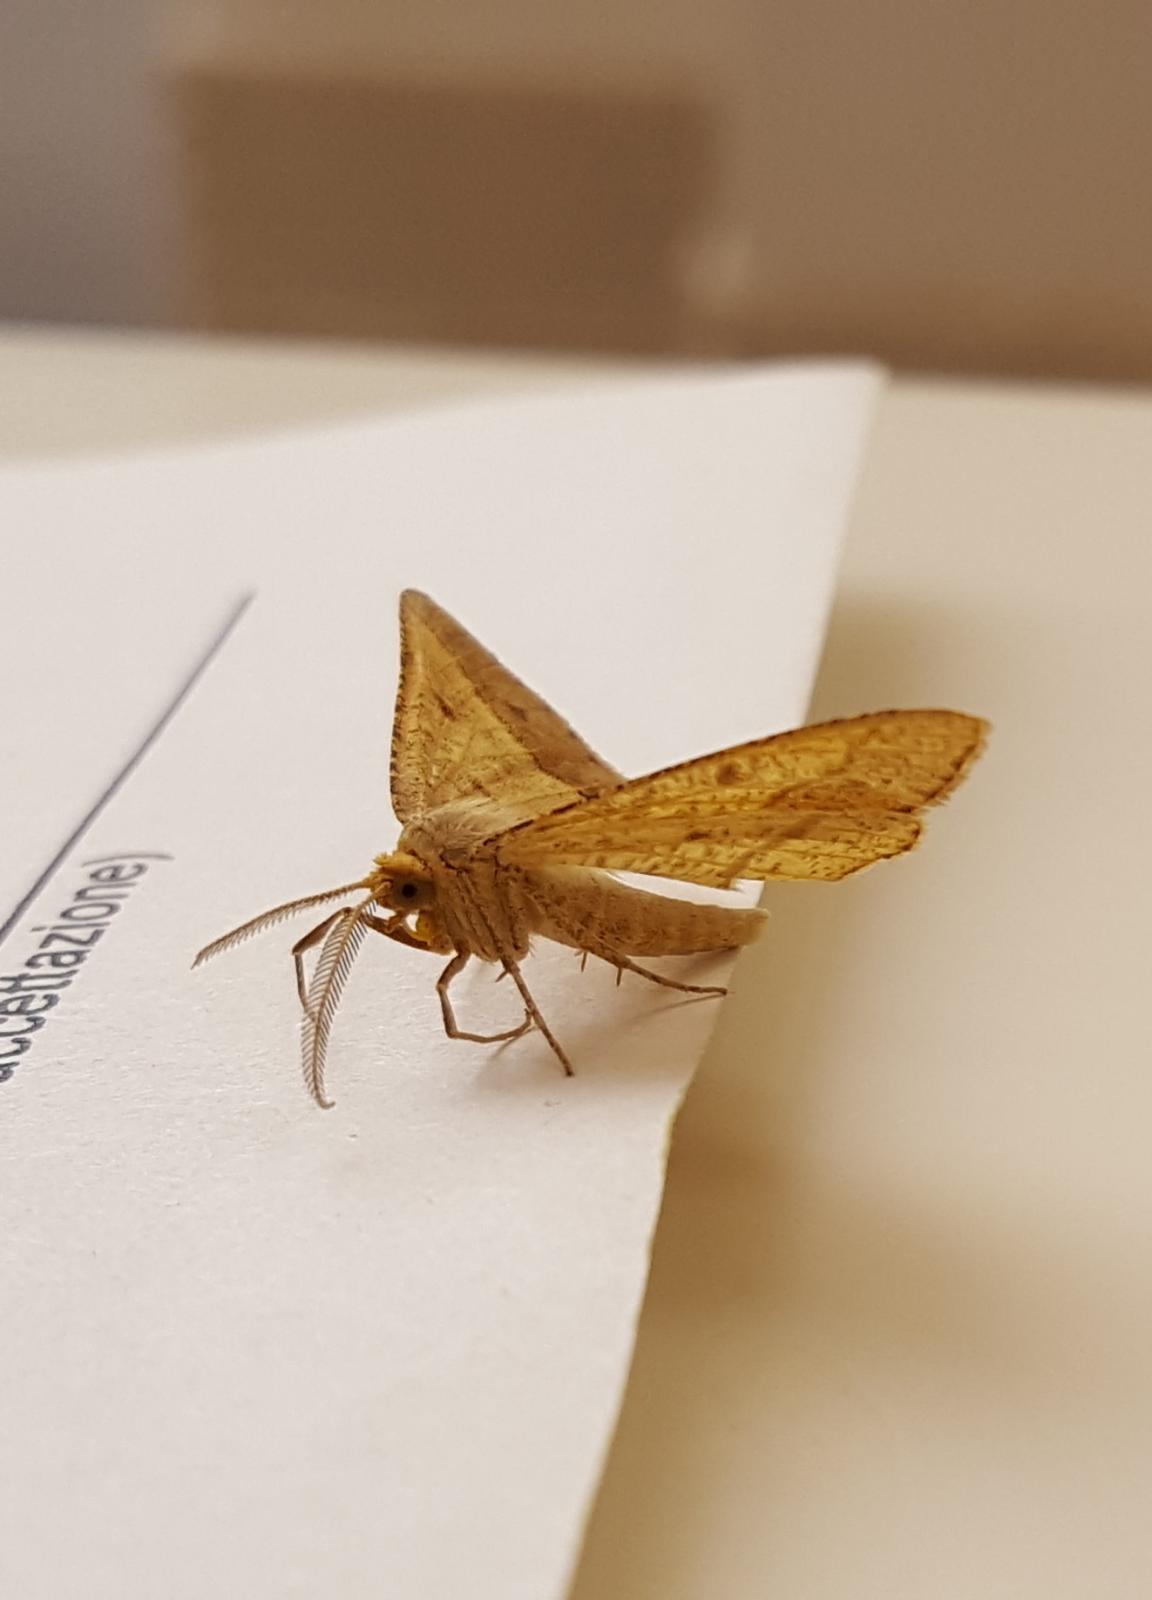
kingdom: Animalia
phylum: Arthropoda
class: Insecta
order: Lepidoptera
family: Geometridae
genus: Tephrina
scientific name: Tephrina arenacearia
